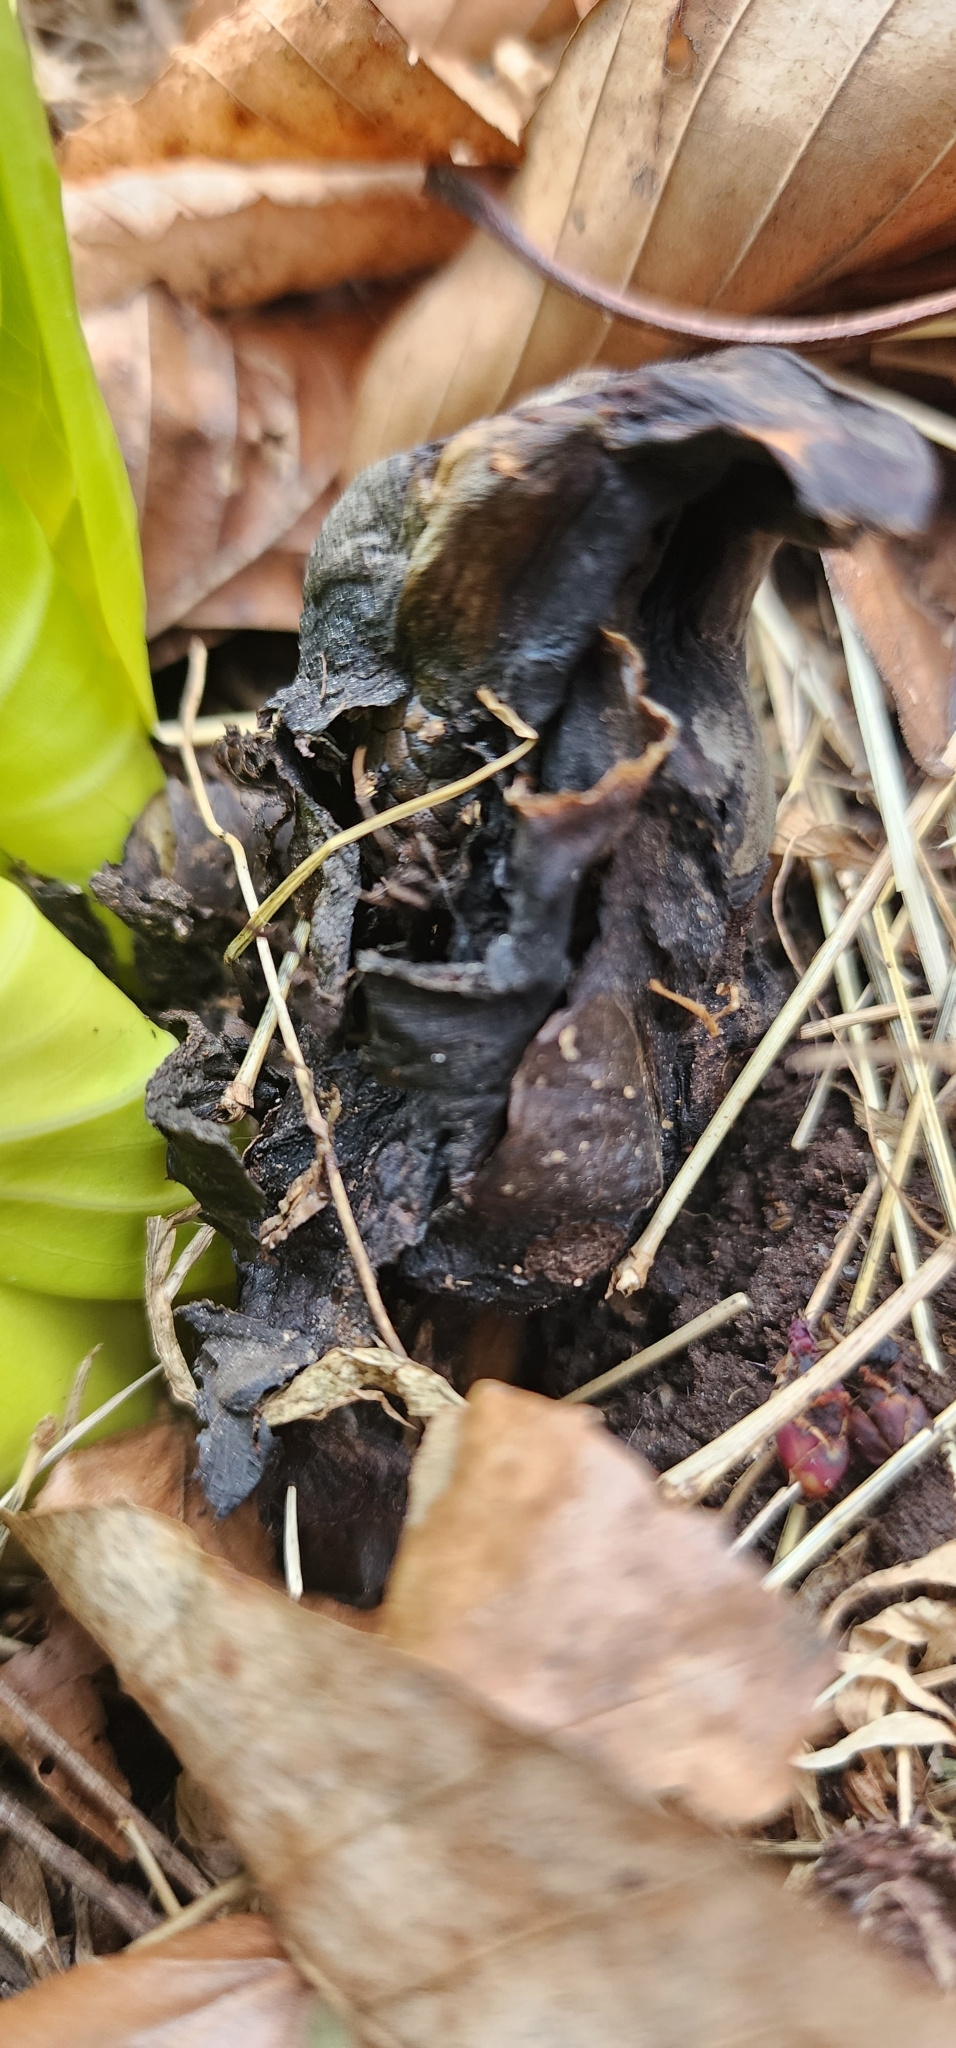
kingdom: Plantae
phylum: Tracheophyta
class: Liliopsida
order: Alismatales
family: Araceae
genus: Symplocarpus
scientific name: Symplocarpus foetidus
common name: Eastern skunk cabbage
